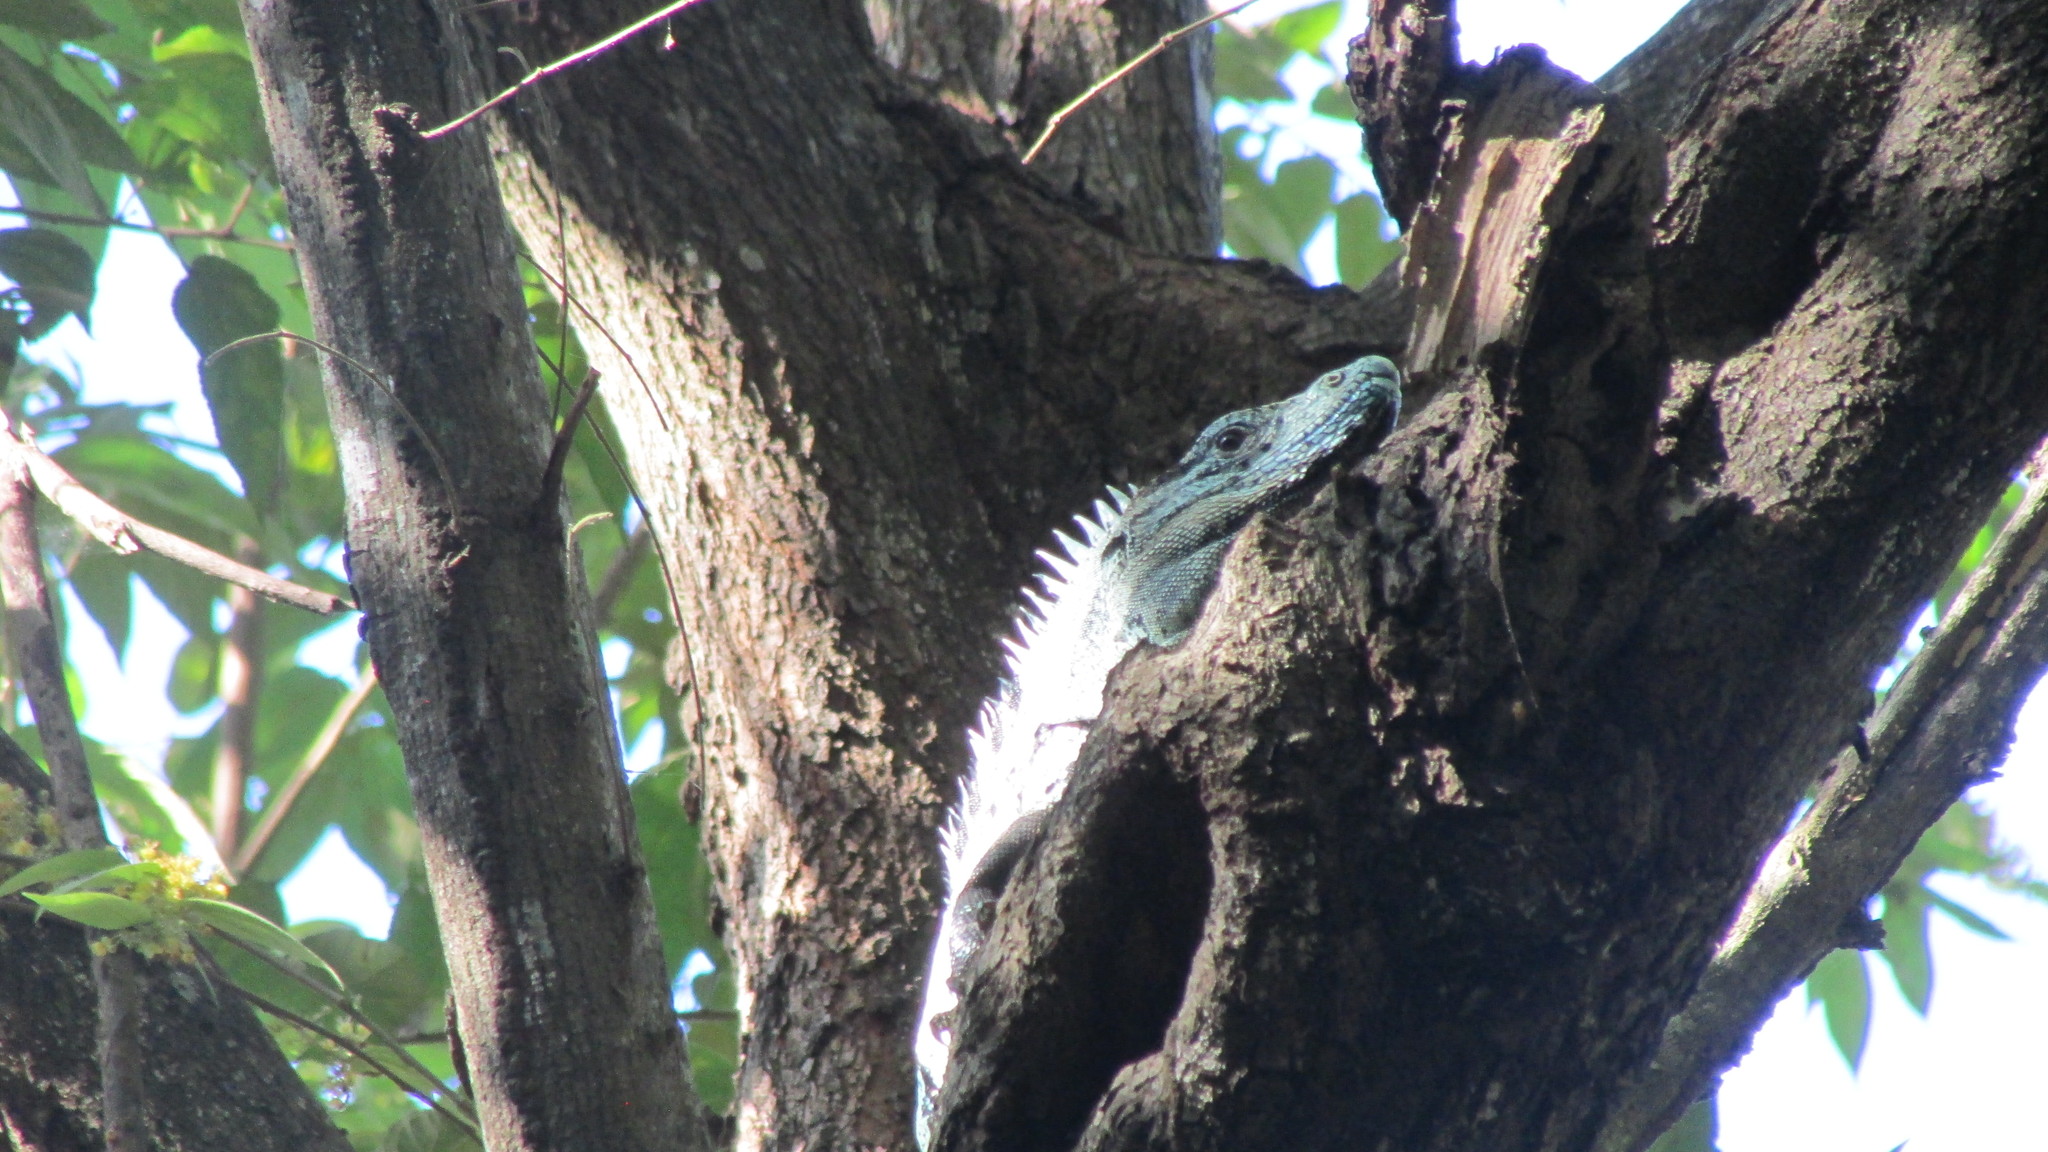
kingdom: Animalia
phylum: Chordata
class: Squamata
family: Iguanidae
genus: Ctenosaura
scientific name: Ctenosaura similis
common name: Black spiny-tailed iguana
